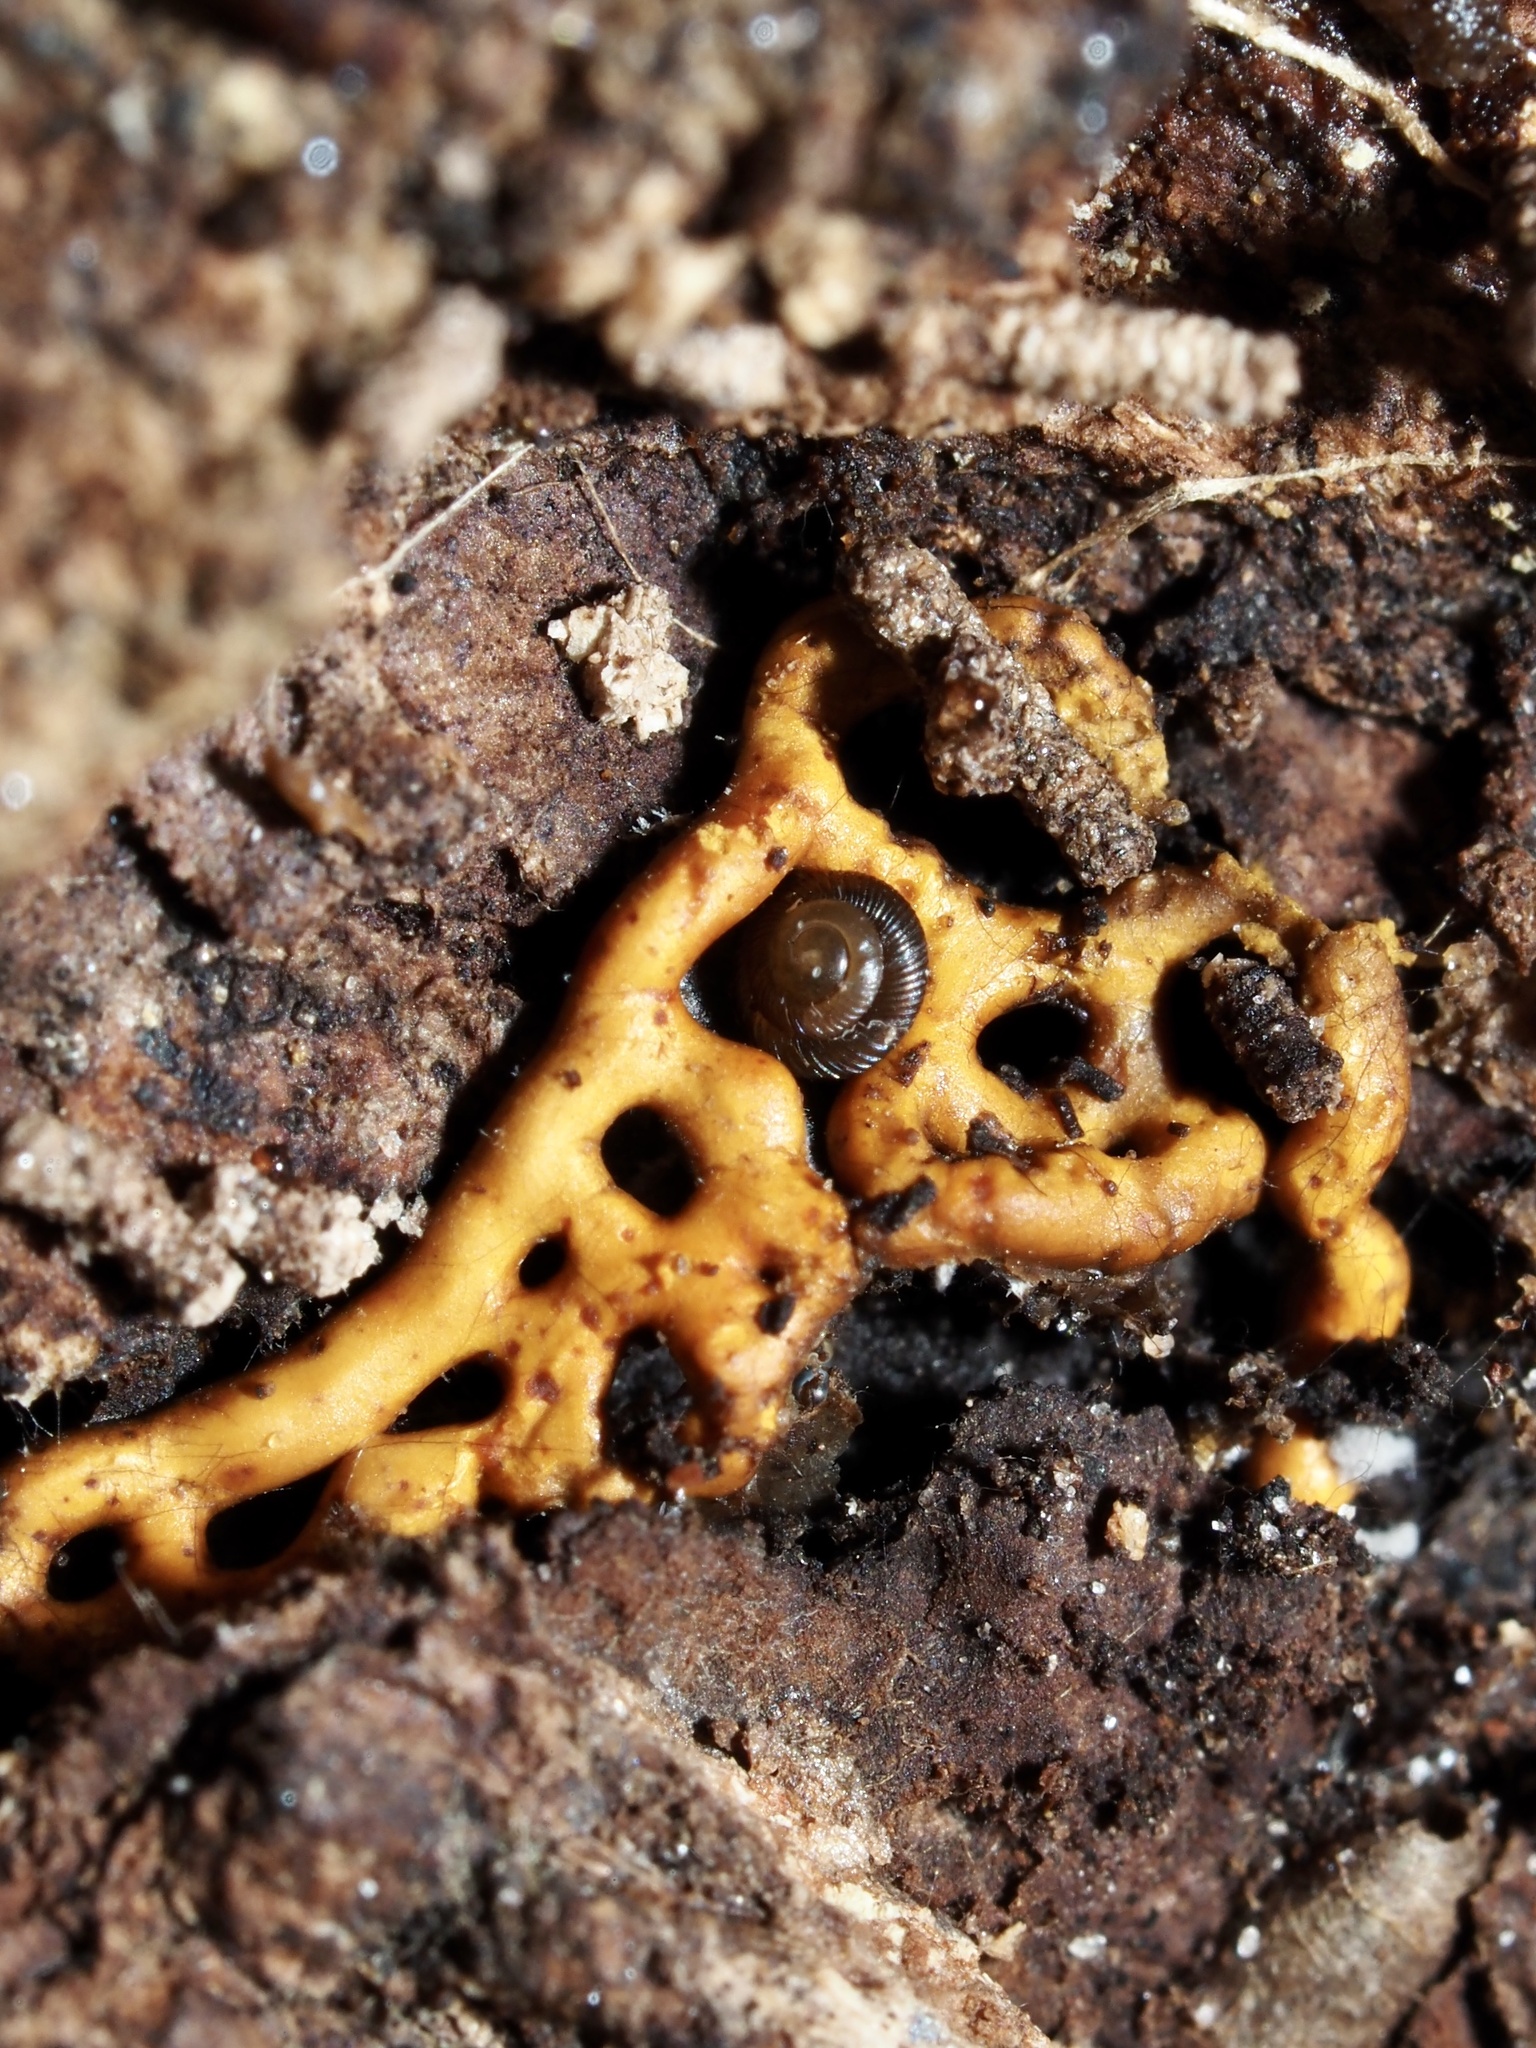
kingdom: Protozoa
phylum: Mycetozoa
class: Myxomycetes
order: Trichiales
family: Arcyriaceae
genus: Hemitrichia
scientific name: Hemitrichia serpula
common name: Pretzel slime mold
